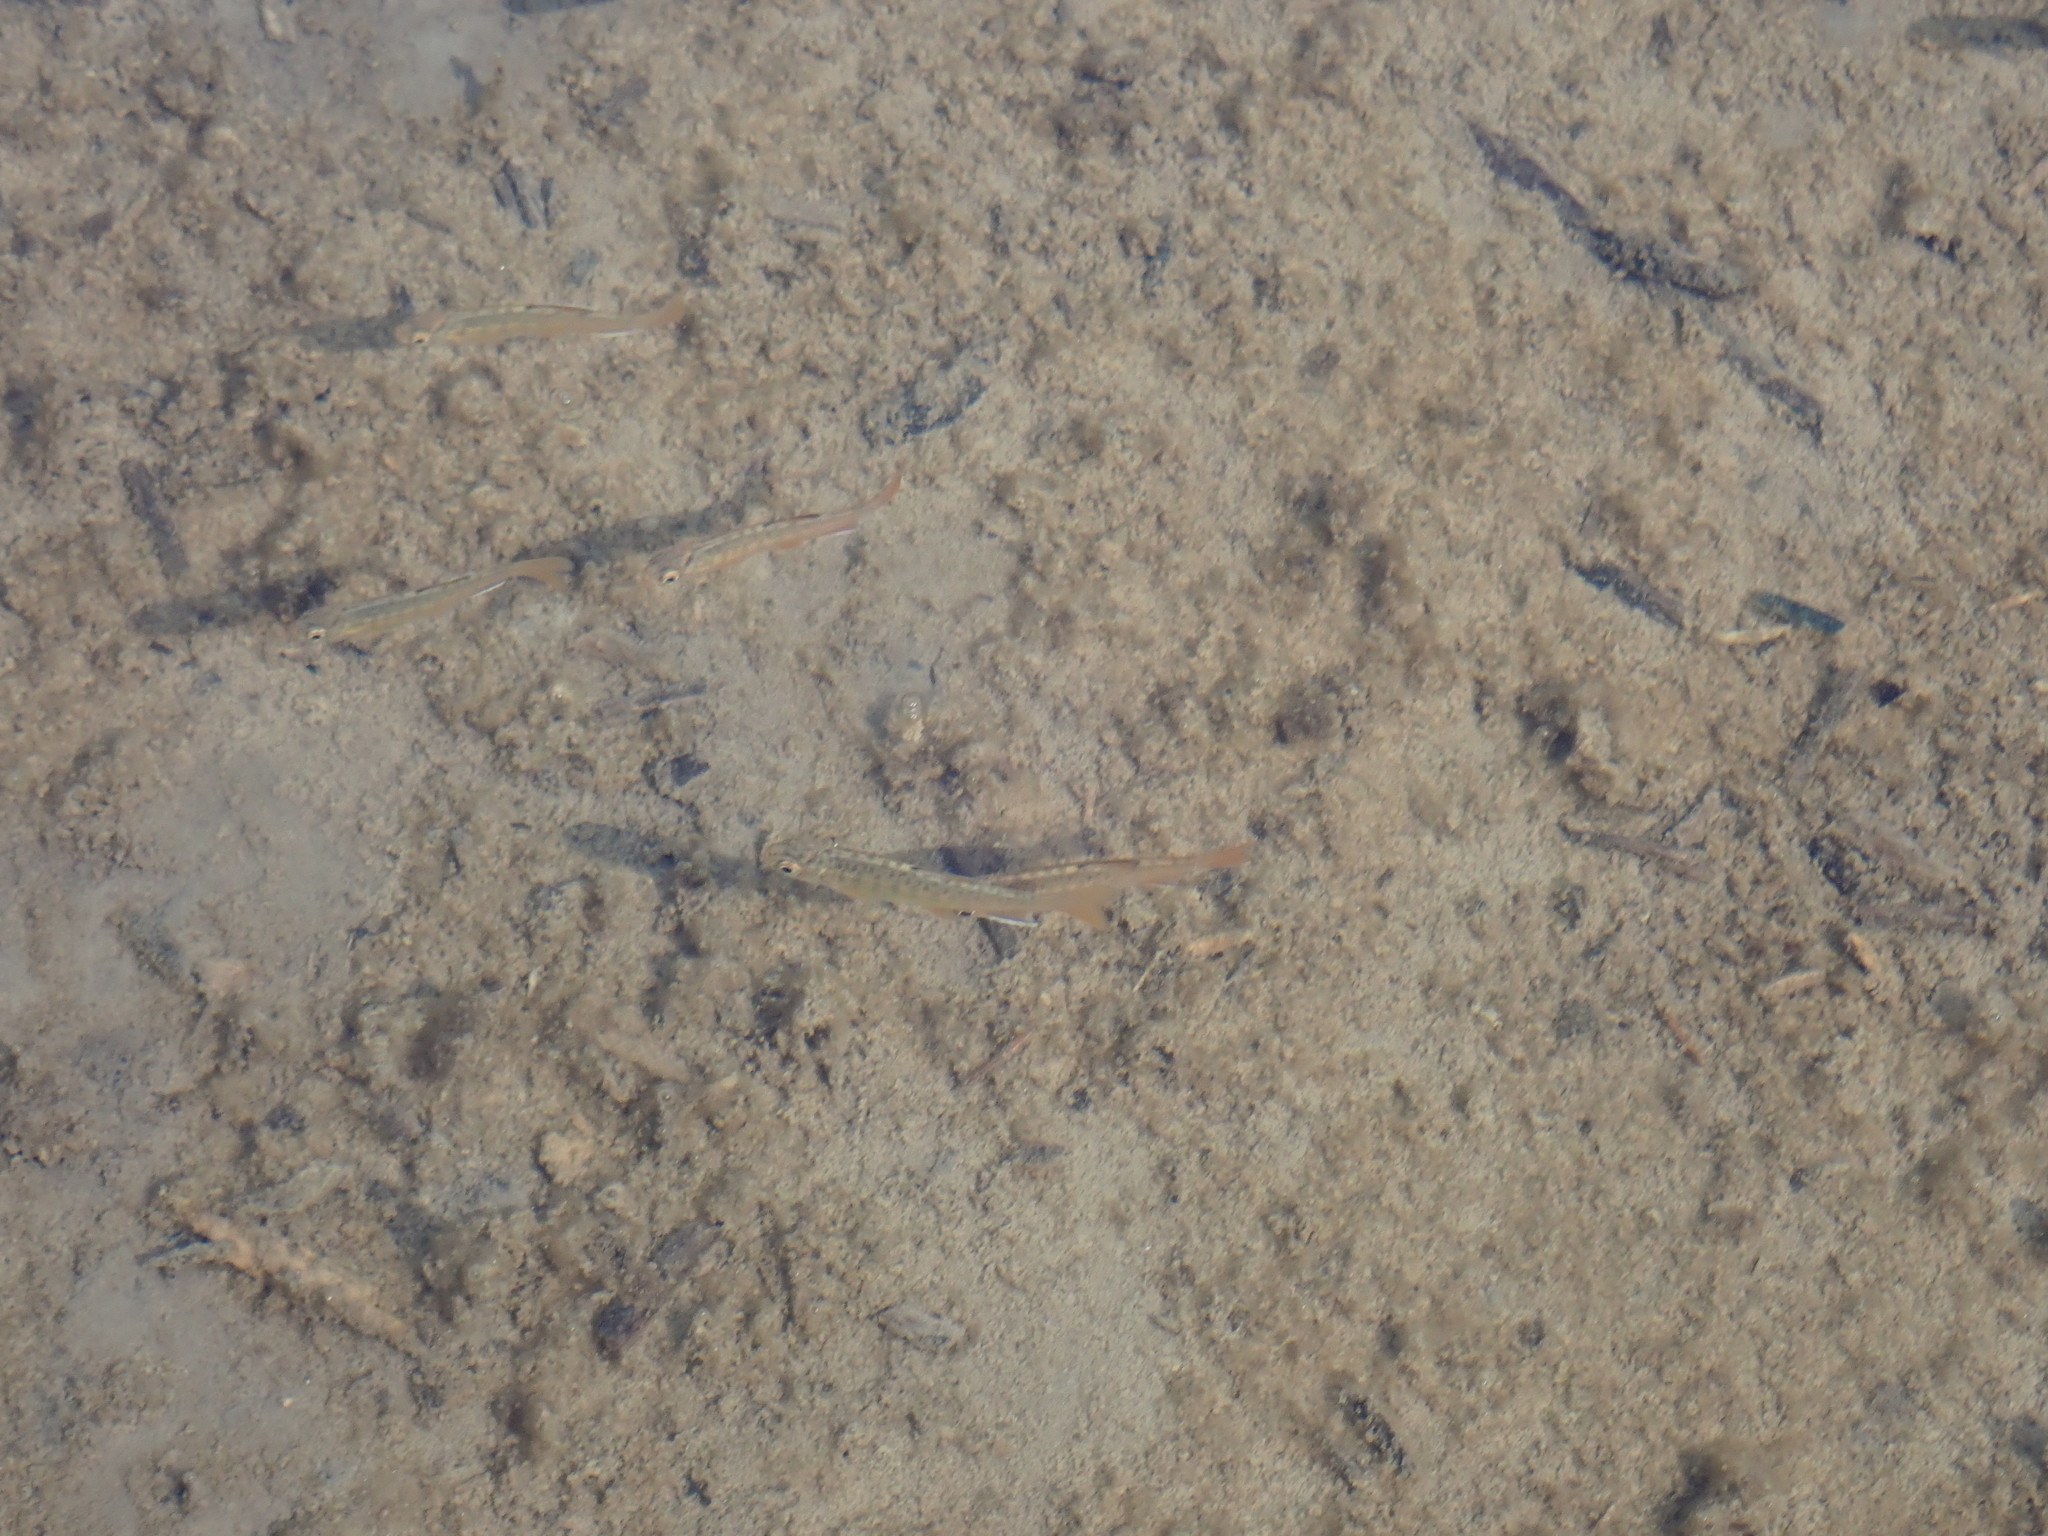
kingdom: Animalia
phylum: Chordata
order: Salmoniformes
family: Salmonidae
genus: Oncorhynchus
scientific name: Oncorhynchus kisutch
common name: Coho salmon
